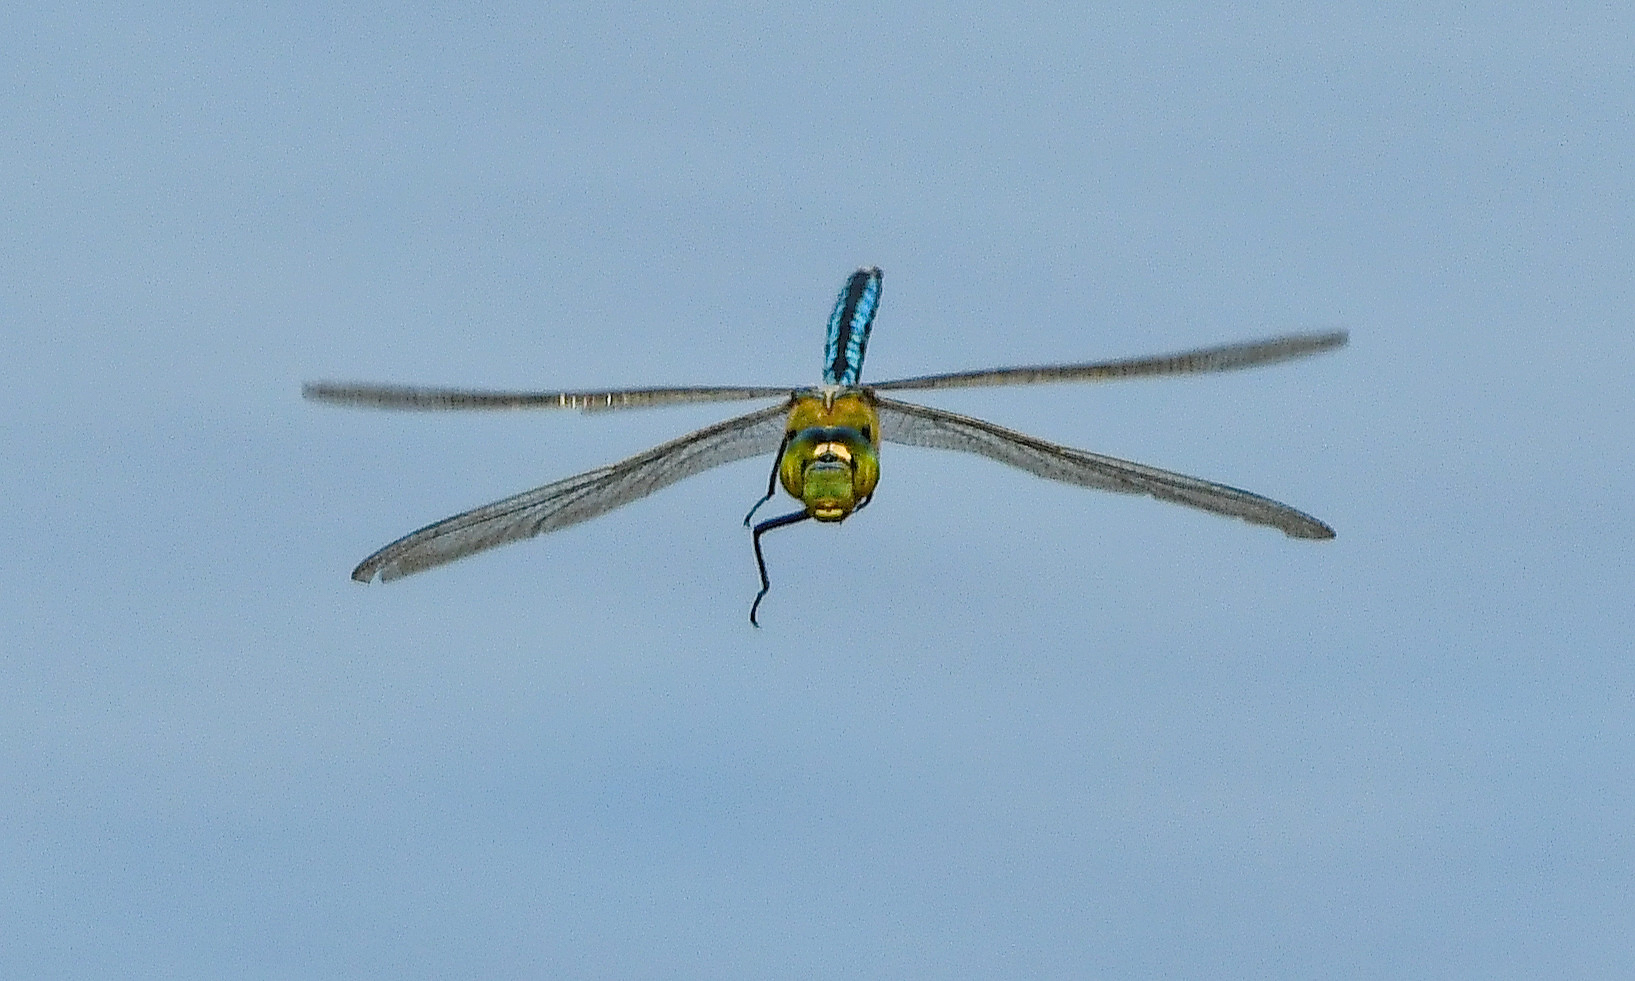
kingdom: Animalia
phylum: Arthropoda
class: Insecta
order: Odonata
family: Aeshnidae
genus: Anax
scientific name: Anax imperator
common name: Emperor dragonfly
